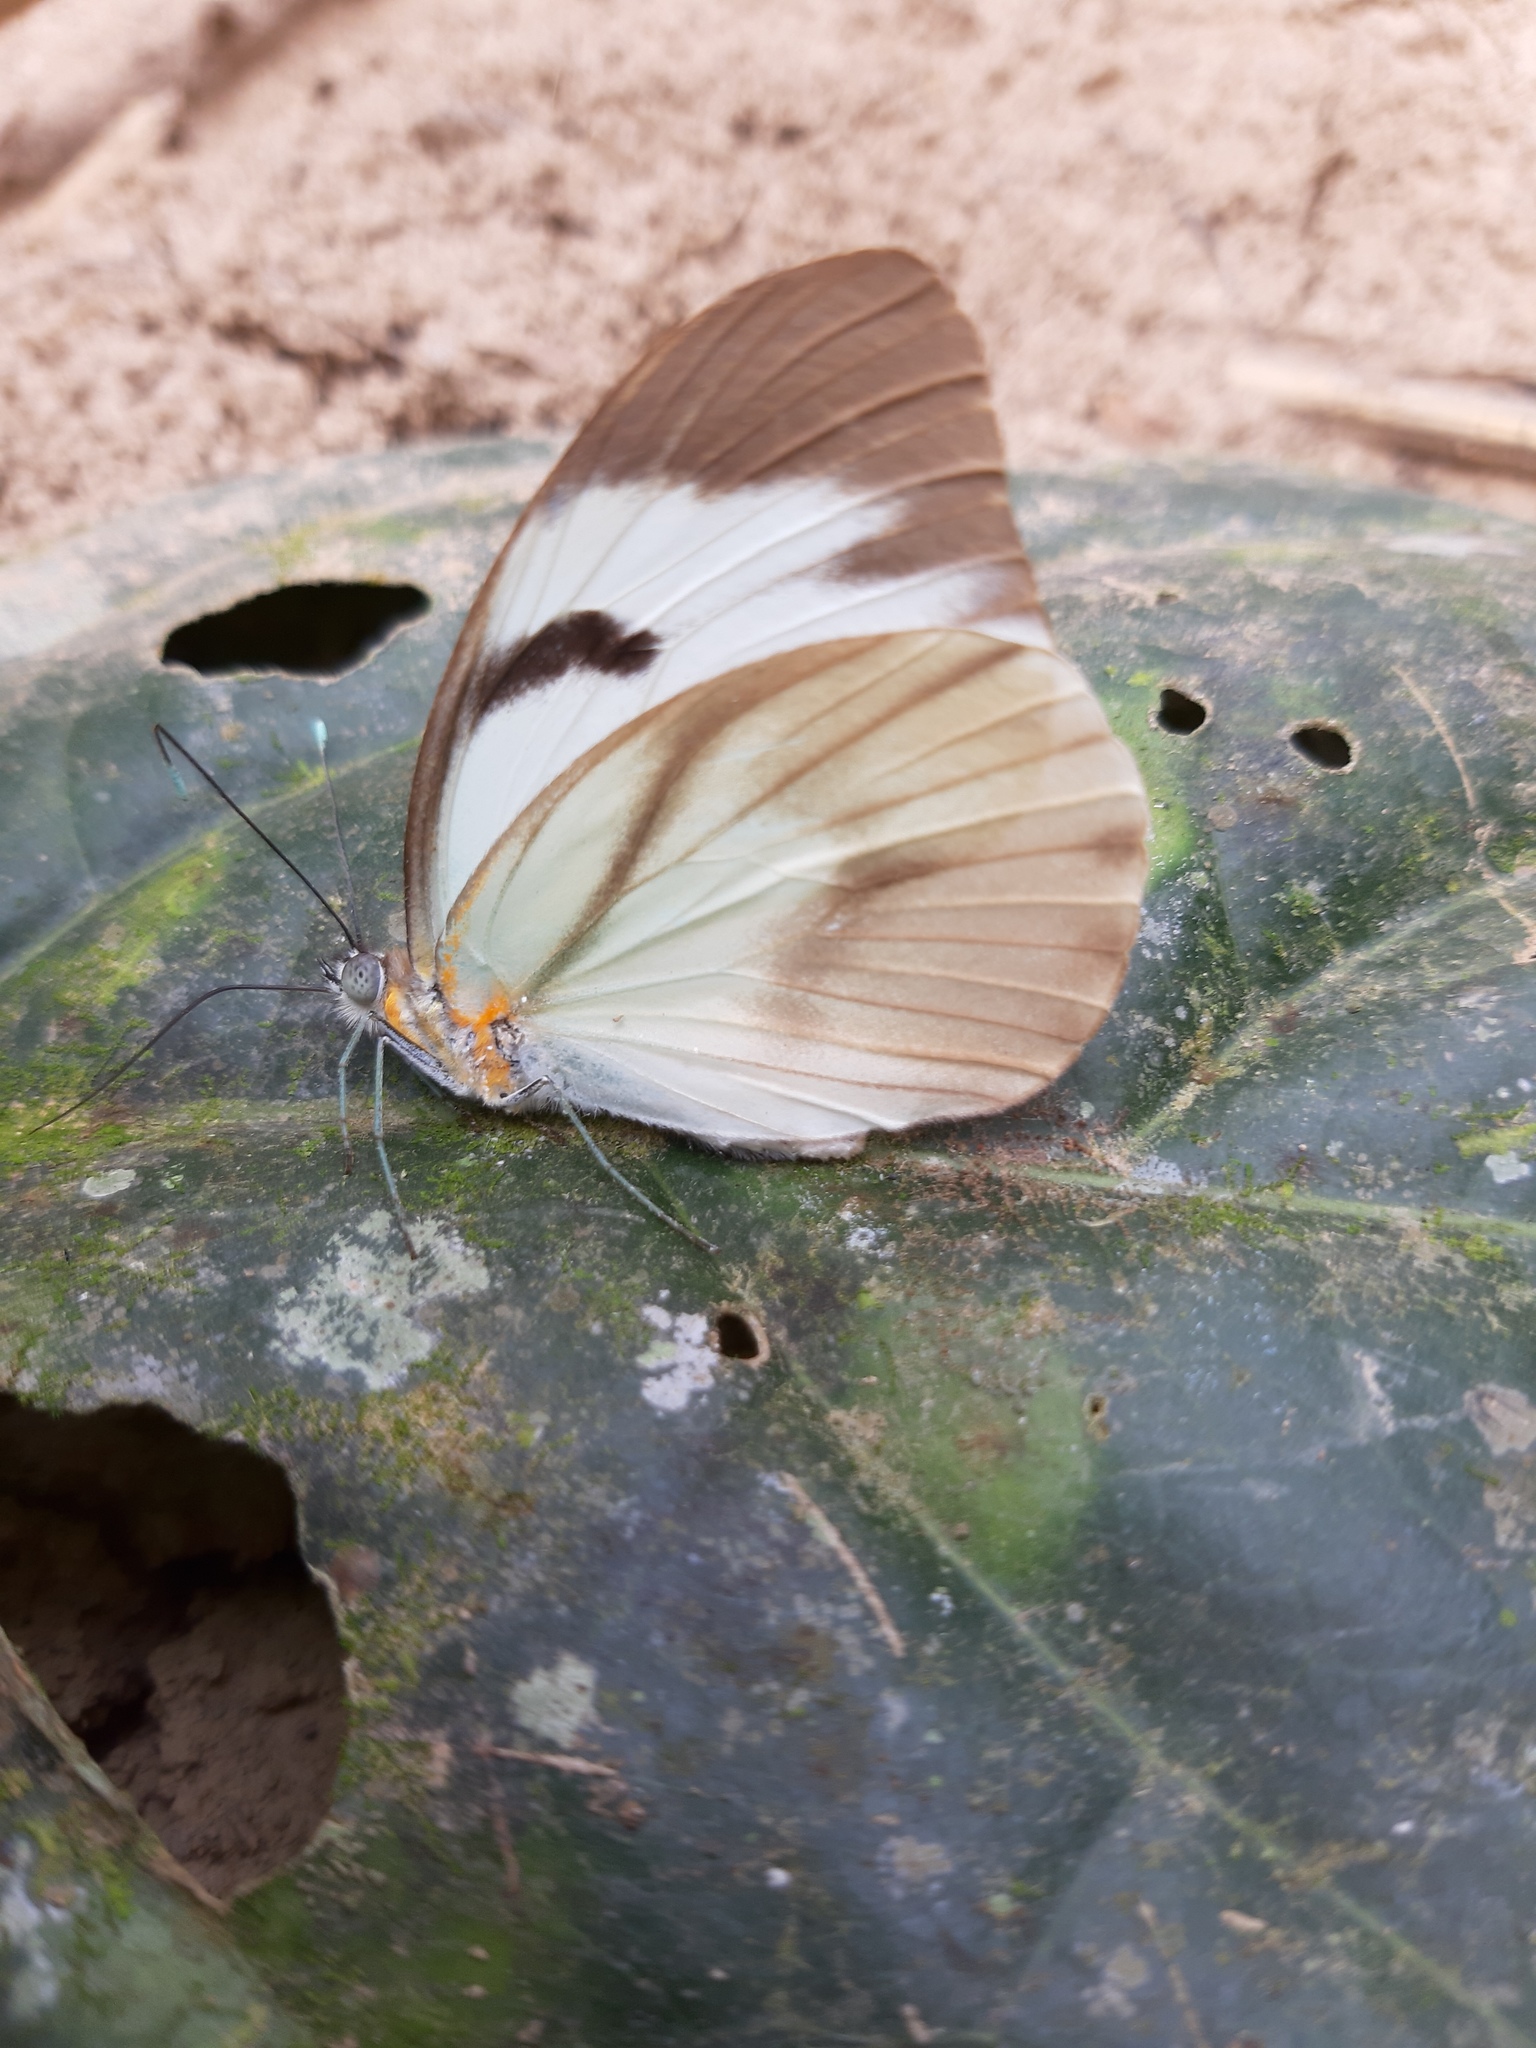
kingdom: Animalia
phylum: Arthropoda
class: Insecta
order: Lepidoptera
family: Pieridae
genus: Ganyra
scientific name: Ganyra phaloe
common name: Giant white
